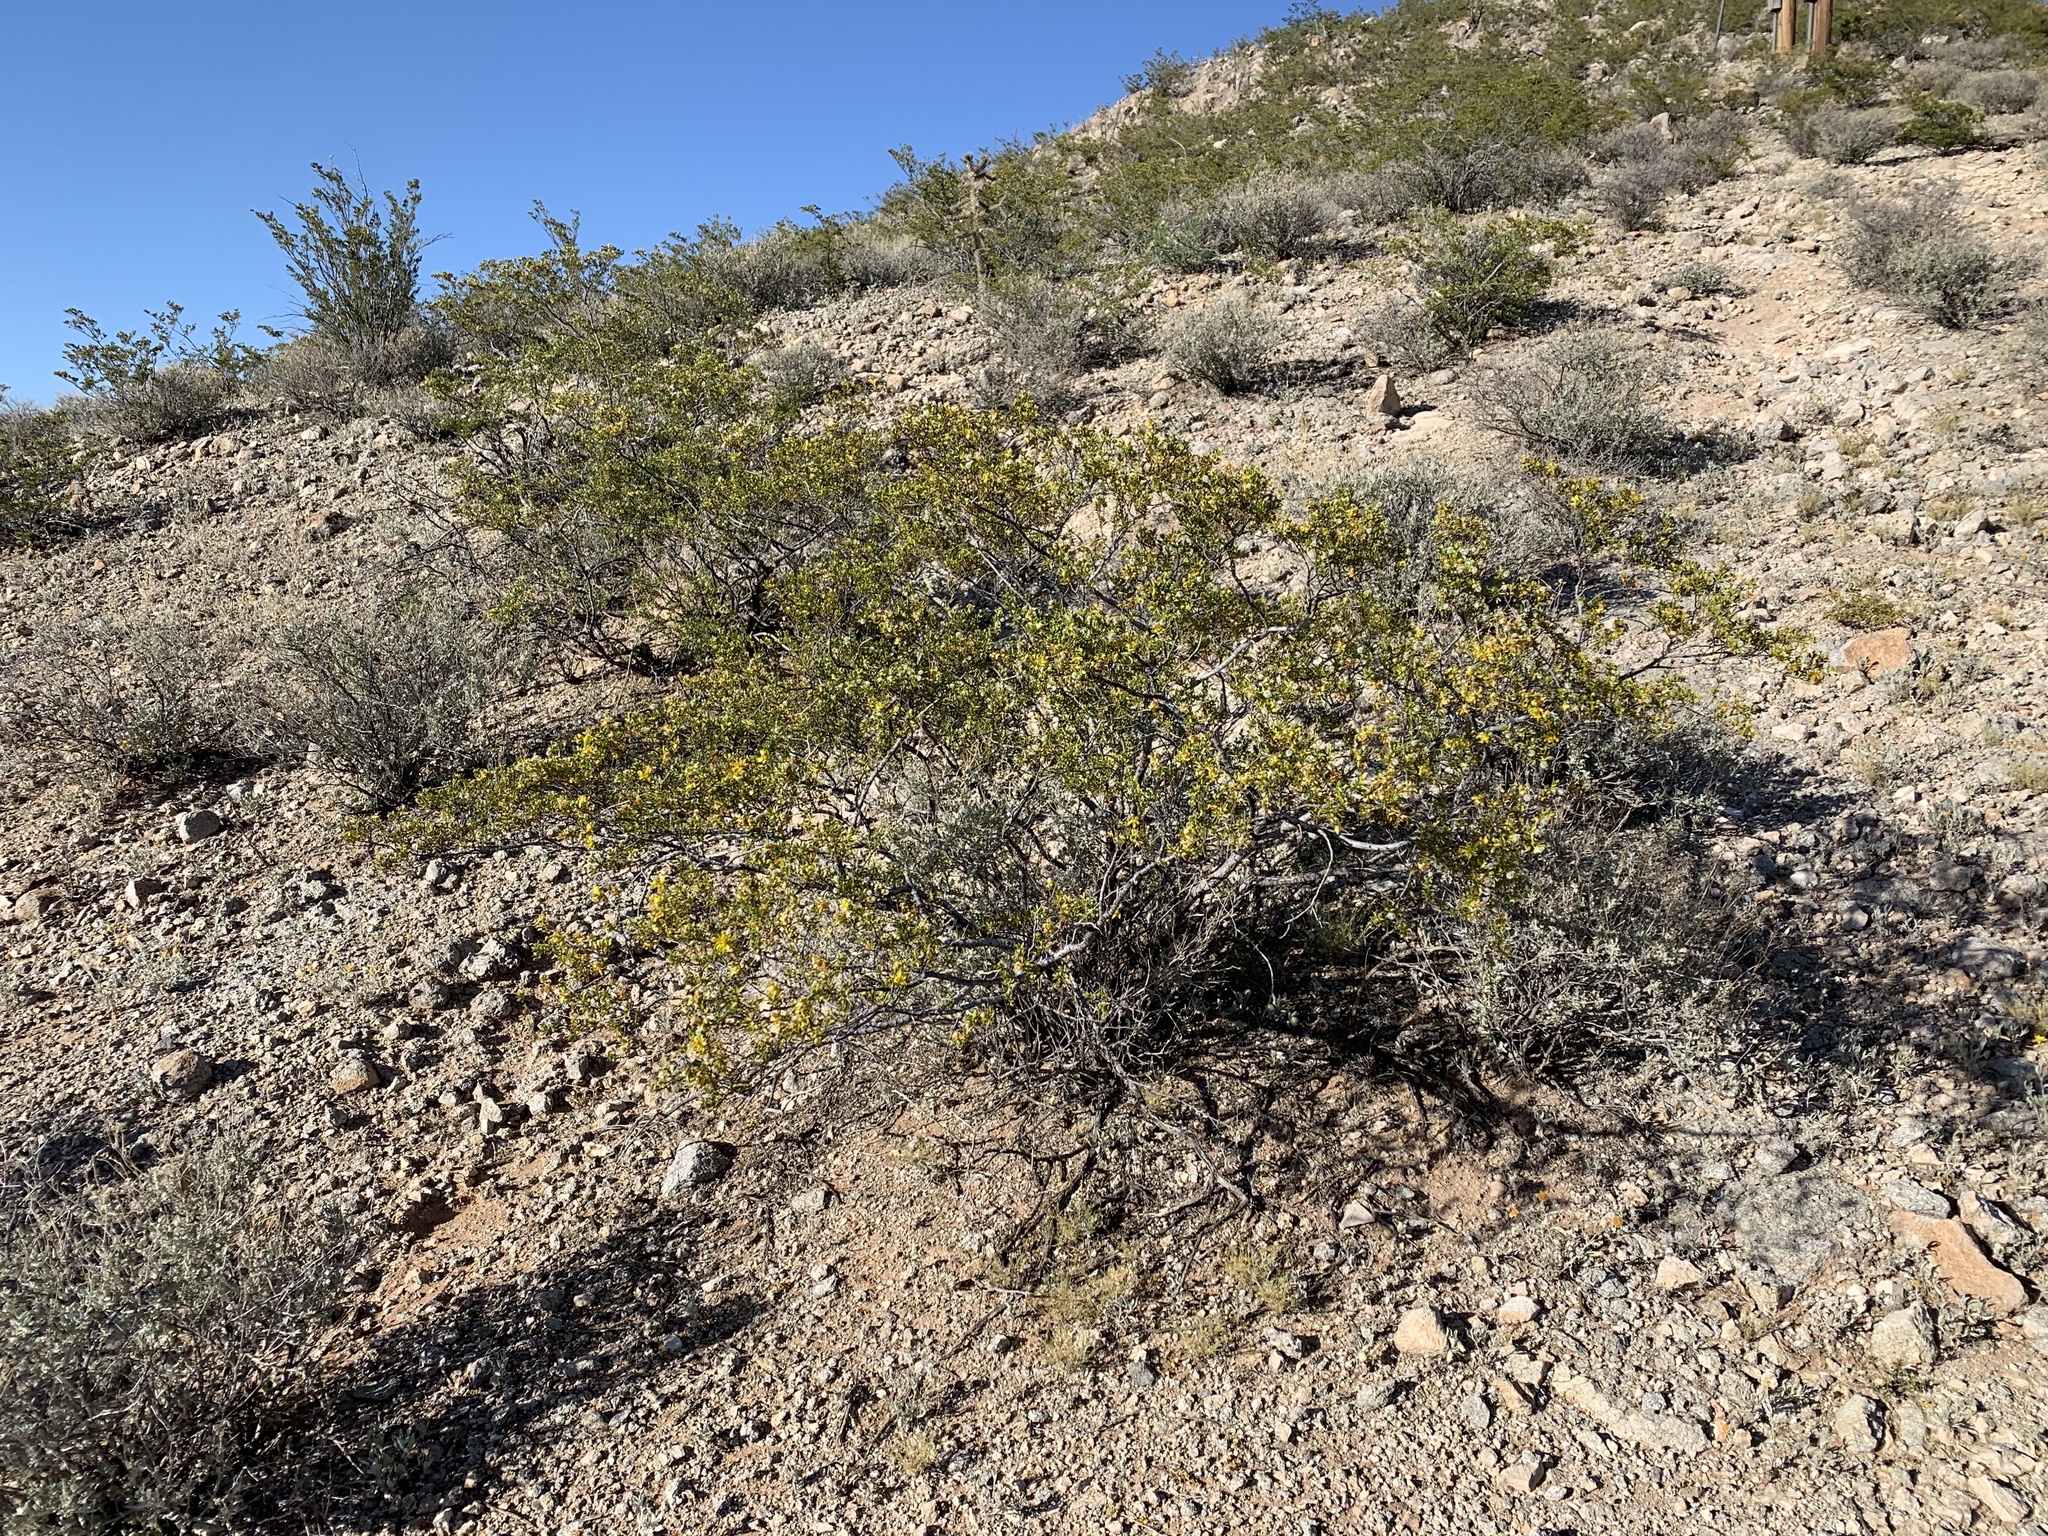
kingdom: Plantae
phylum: Tracheophyta
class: Magnoliopsida
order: Zygophyllales
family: Zygophyllaceae
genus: Larrea
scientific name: Larrea tridentata
